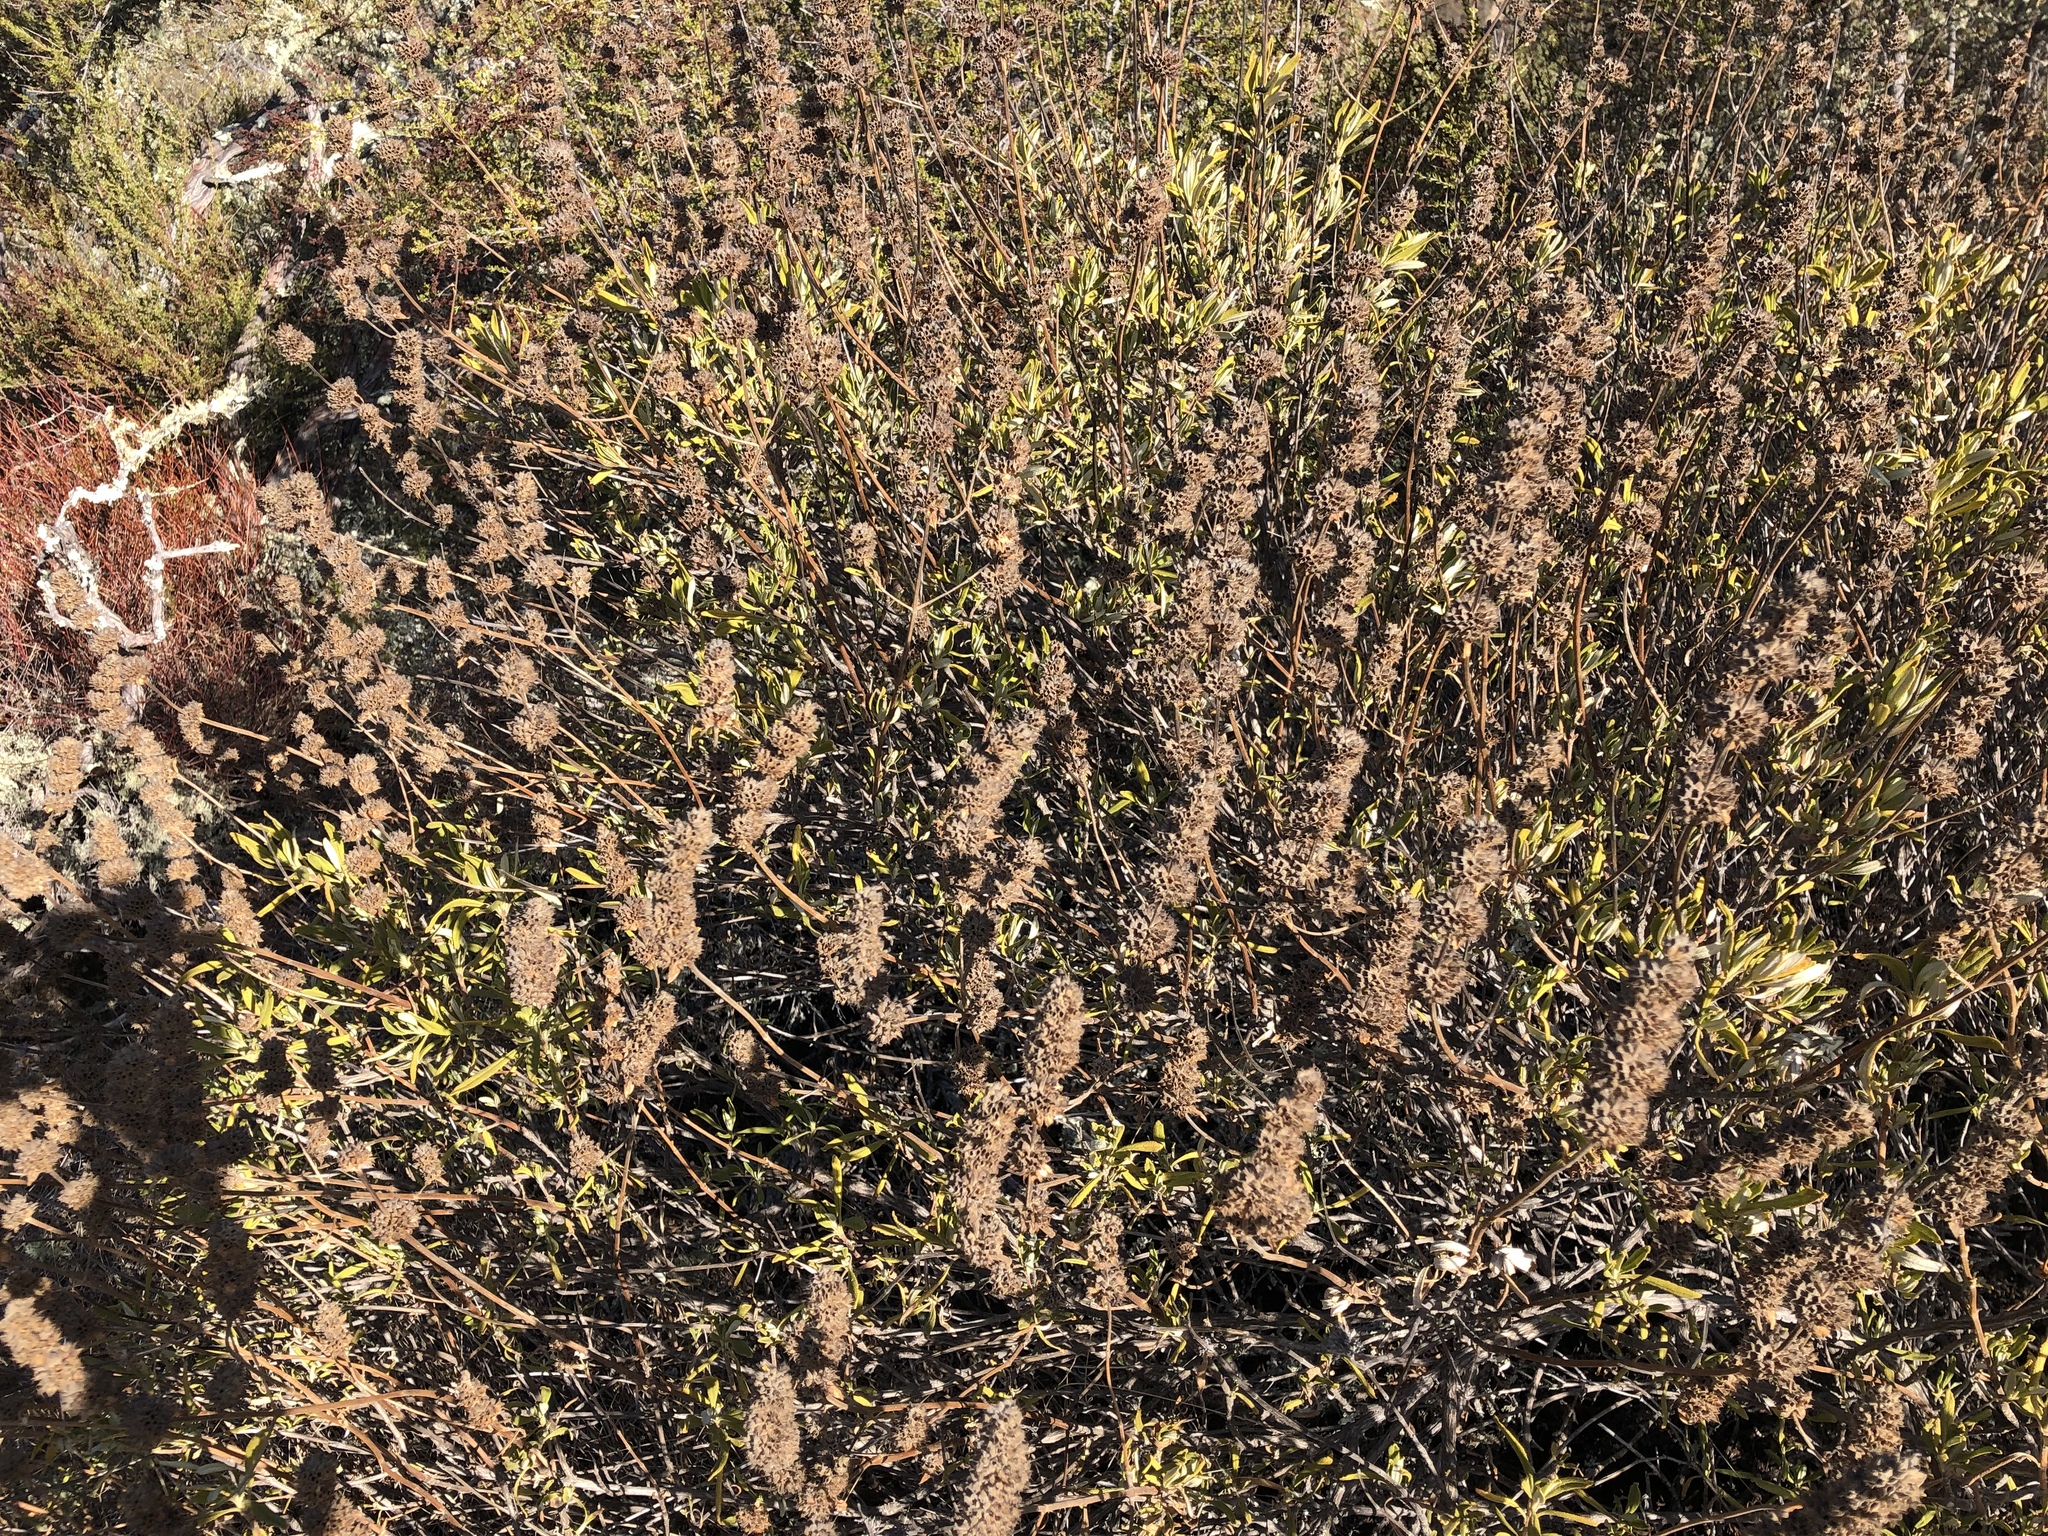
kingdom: Plantae
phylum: Tracheophyta
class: Magnoliopsida
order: Lamiales
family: Lamiaceae
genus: Salvia
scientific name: Salvia mellifera
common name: Black sage
